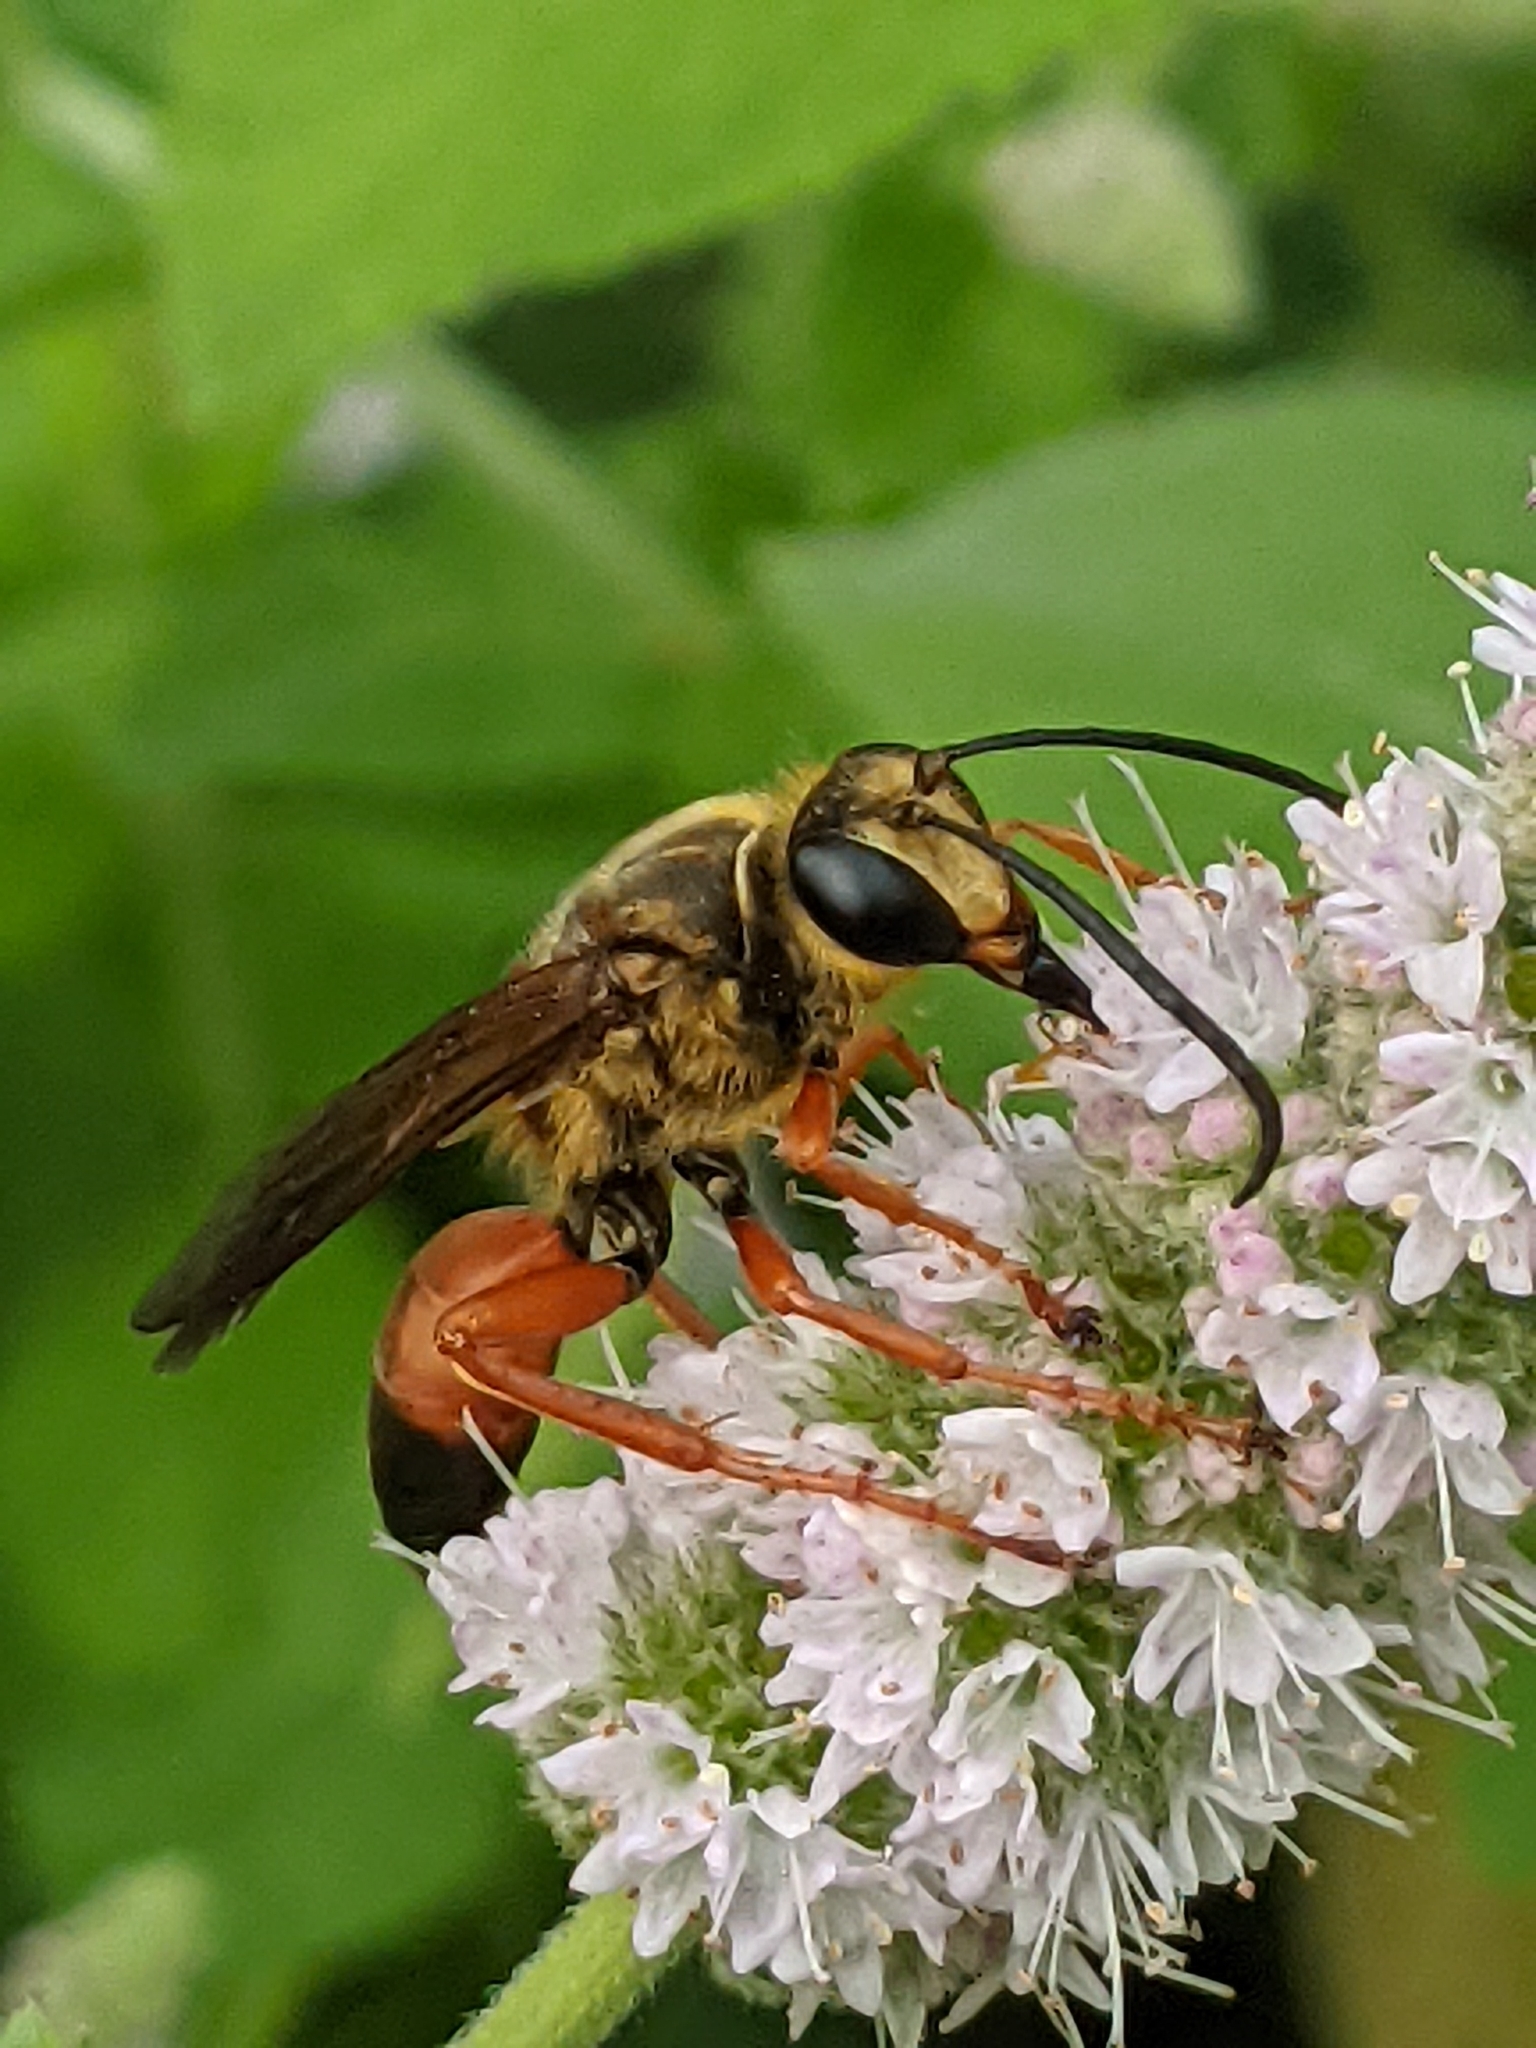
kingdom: Animalia
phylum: Arthropoda
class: Insecta
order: Hymenoptera
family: Sphecidae
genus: Sphex
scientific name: Sphex ichneumoneus
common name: Great golden digger wasp
